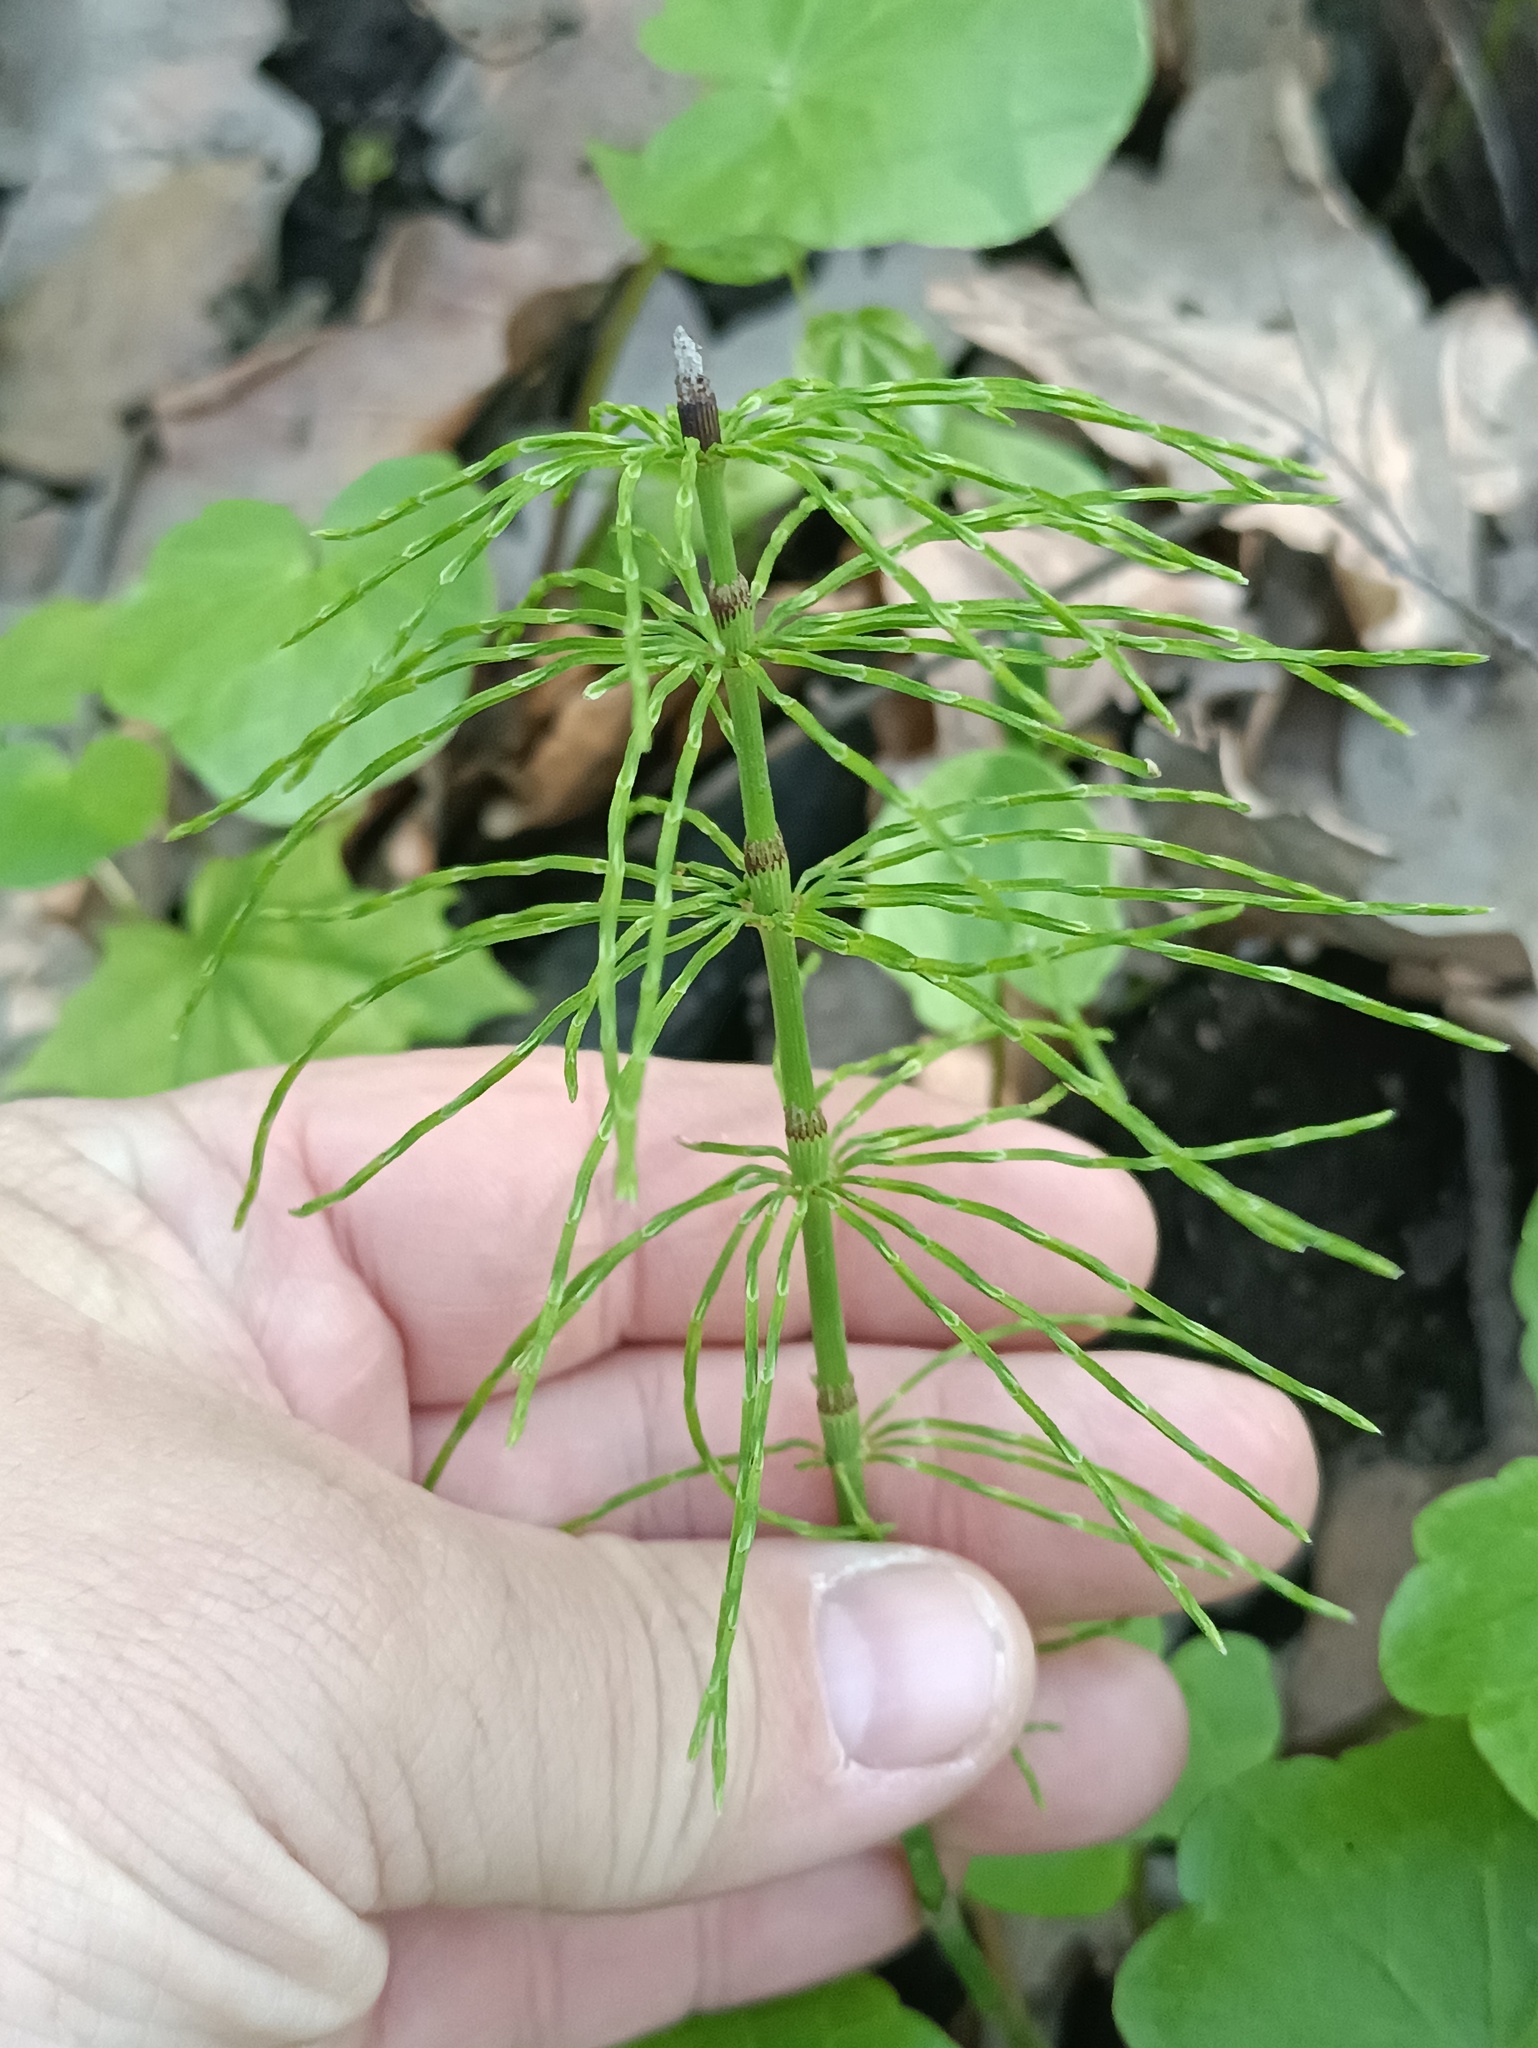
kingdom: Plantae
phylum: Tracheophyta
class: Polypodiopsida
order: Equisetales
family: Equisetaceae
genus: Equisetum
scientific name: Equisetum pratense
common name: Meadow horsetail
